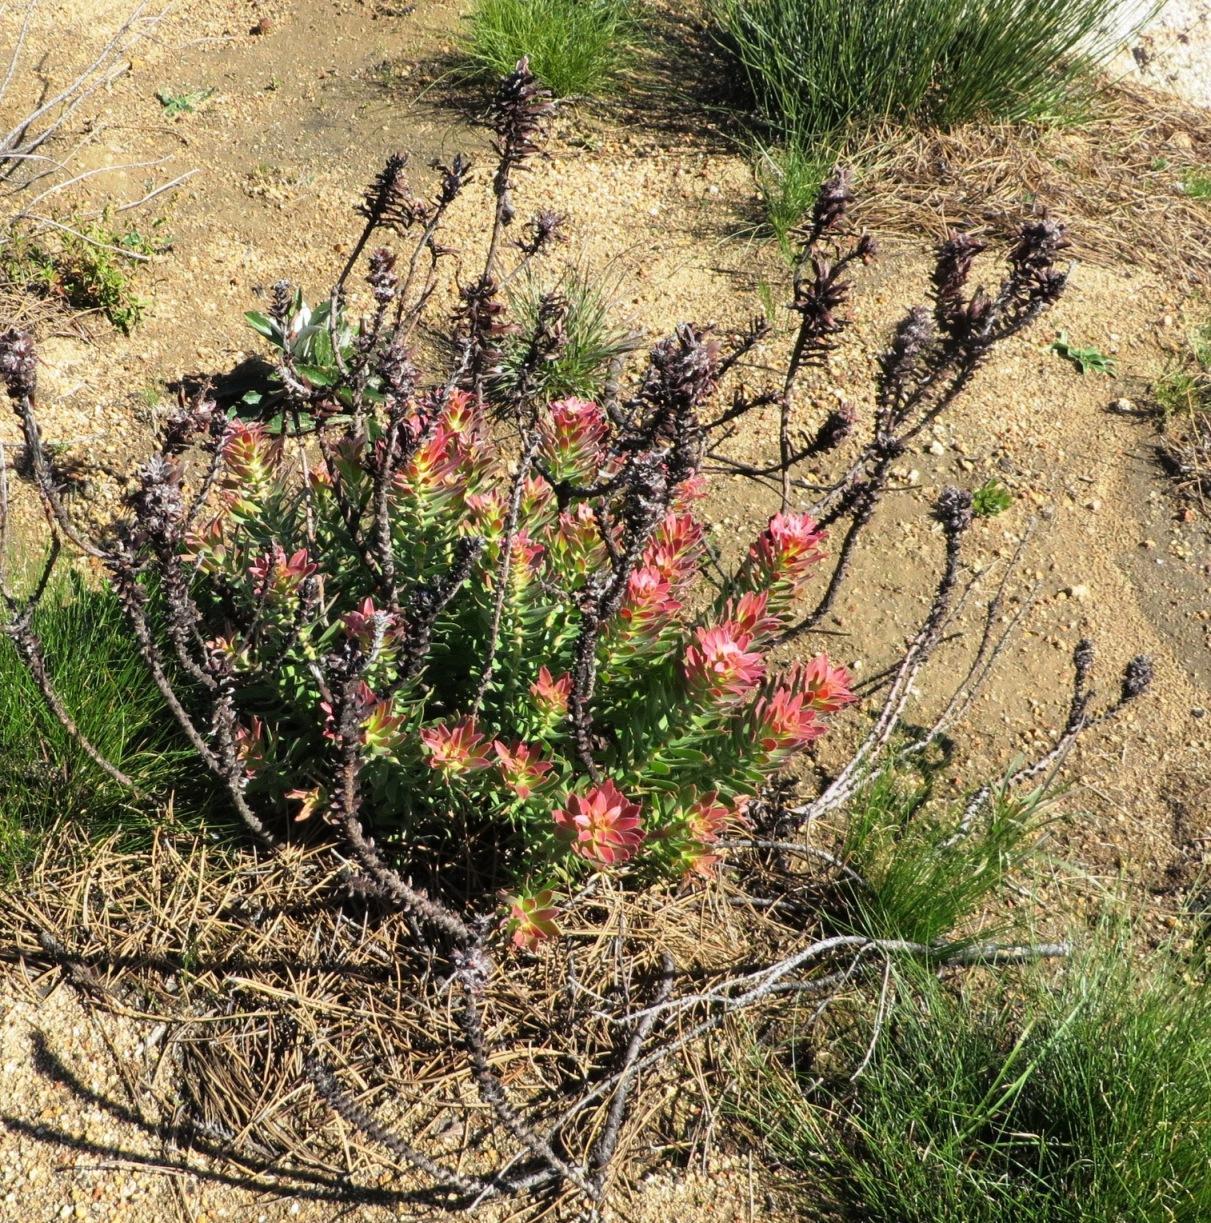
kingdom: Plantae
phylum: Tracheophyta
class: Magnoliopsida
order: Proteales
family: Proteaceae
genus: Mimetes
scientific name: Mimetes cucullatus
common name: Common pagoda
